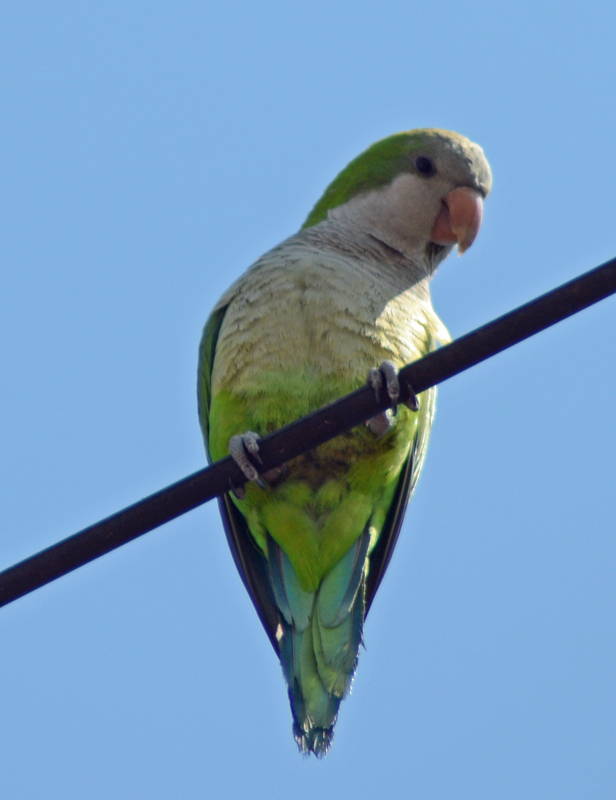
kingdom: Animalia
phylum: Chordata
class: Aves
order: Psittaciformes
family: Psittacidae
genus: Myiopsitta
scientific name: Myiopsitta monachus
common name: Monk parakeet
